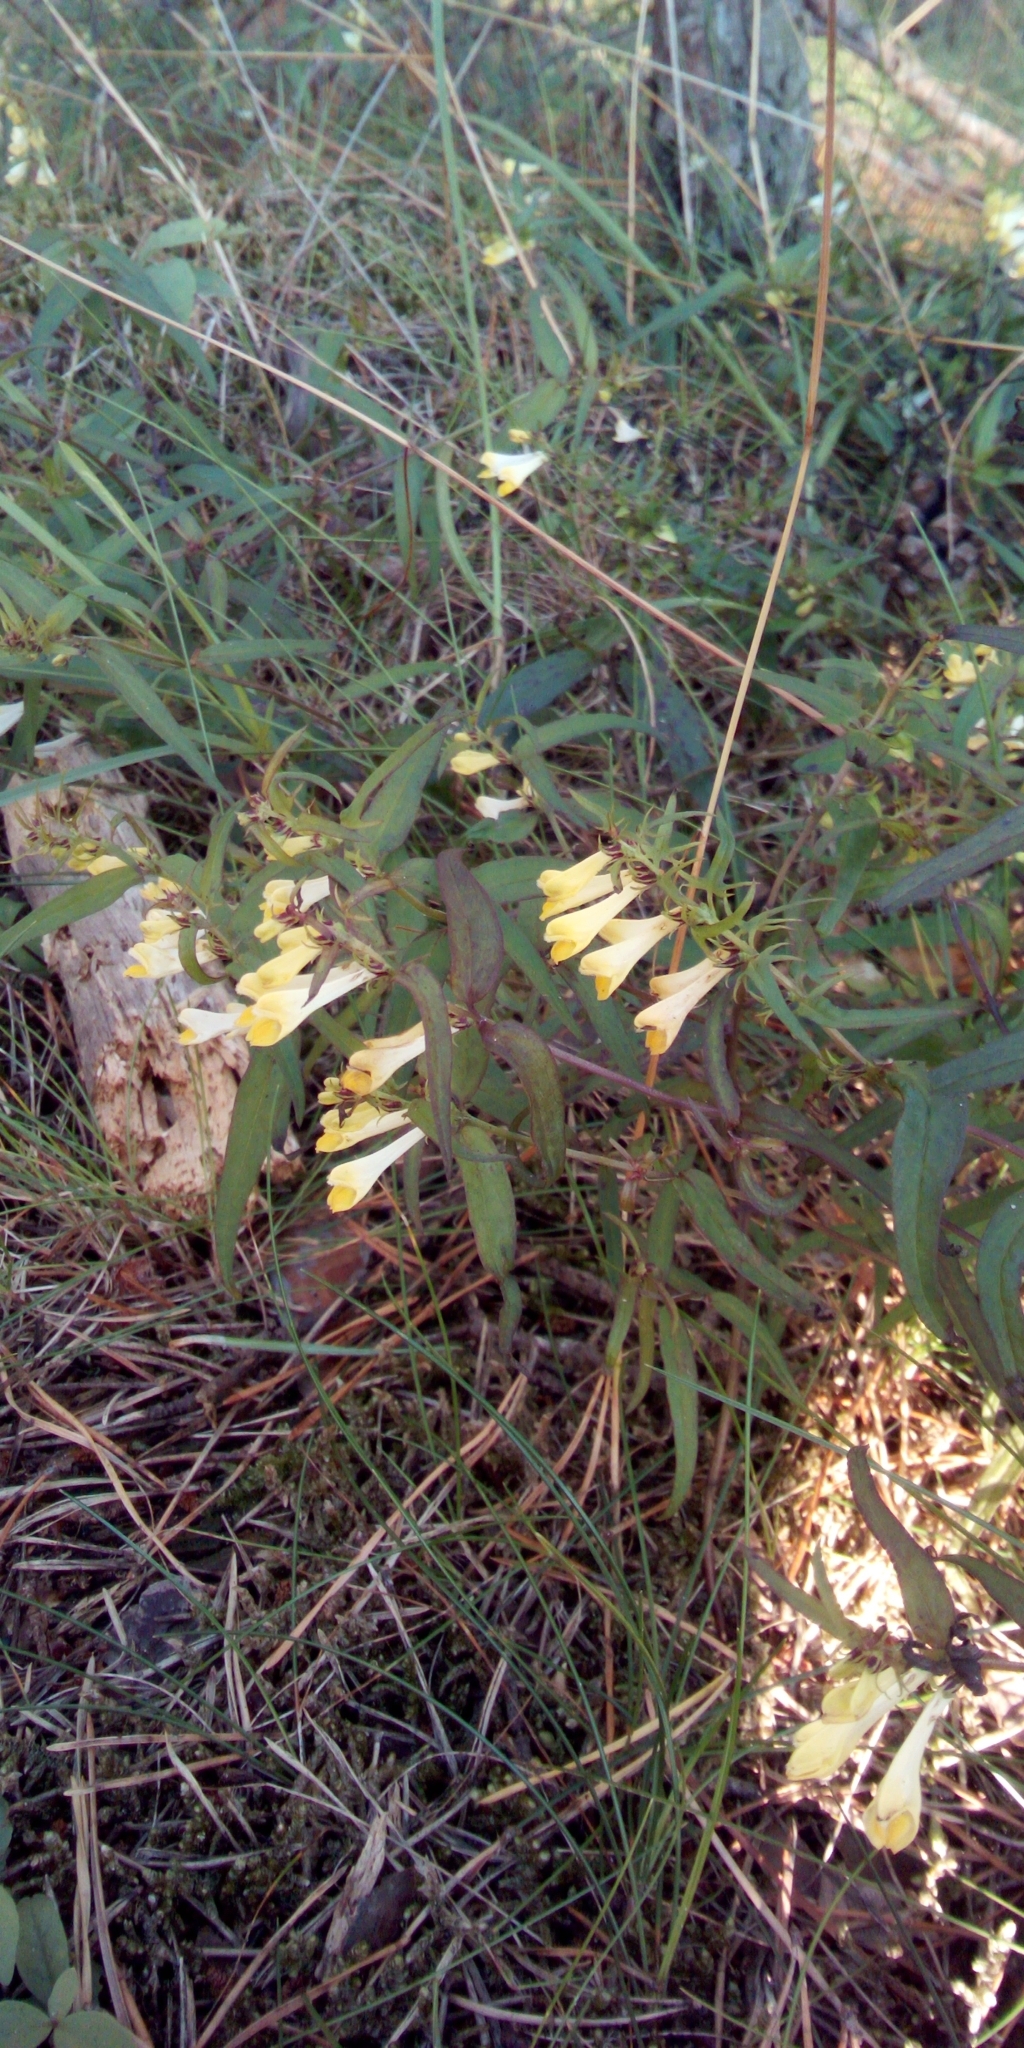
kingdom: Plantae
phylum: Tracheophyta
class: Magnoliopsida
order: Lamiales
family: Orobanchaceae
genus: Melampyrum
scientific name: Melampyrum pratense
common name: Common cow-wheat
